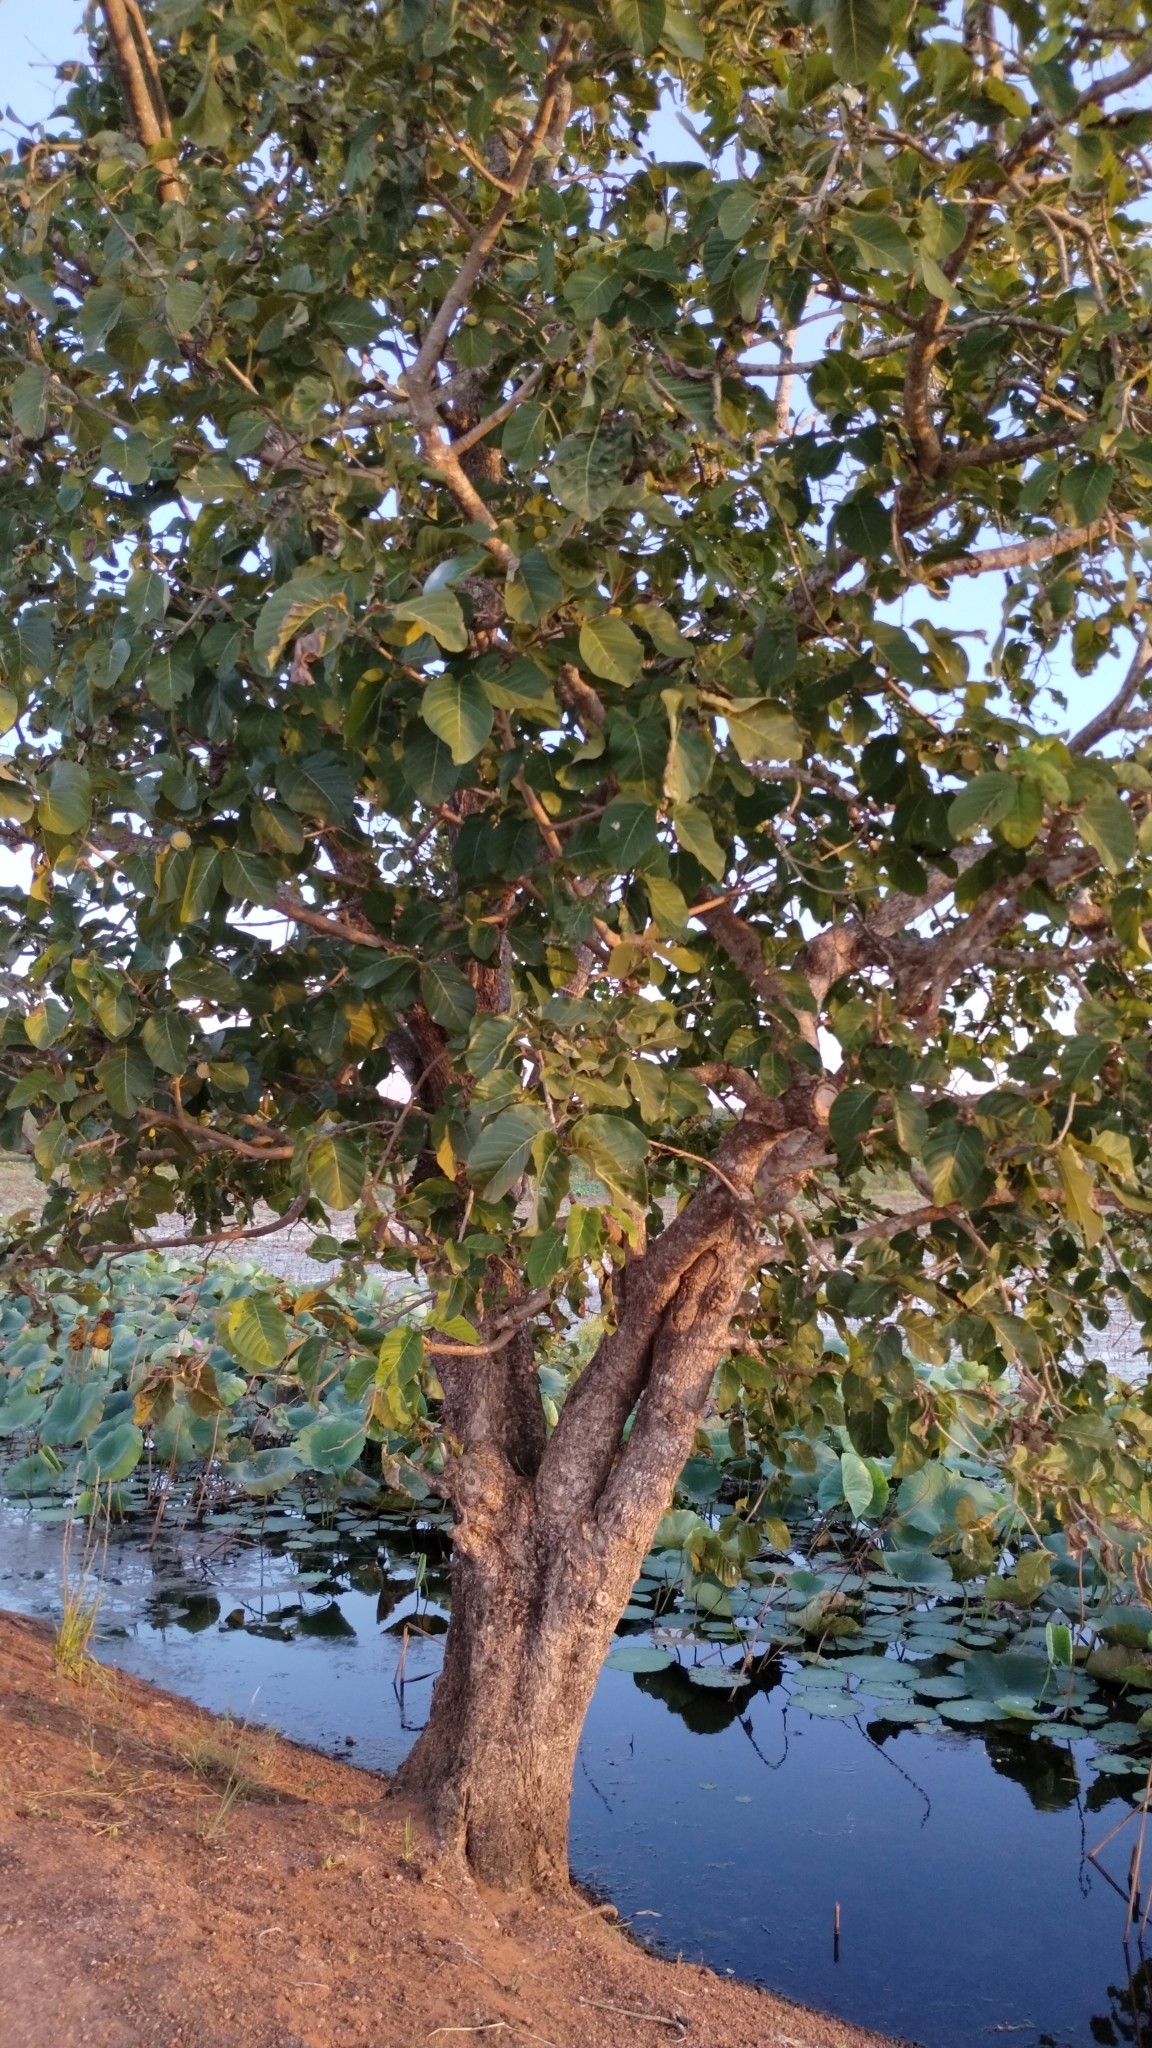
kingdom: Plantae
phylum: Tracheophyta
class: Magnoliopsida
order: Gentianales
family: Rubiaceae
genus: Nauclea
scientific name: Nauclea orientalis
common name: Leichhardt-pine
